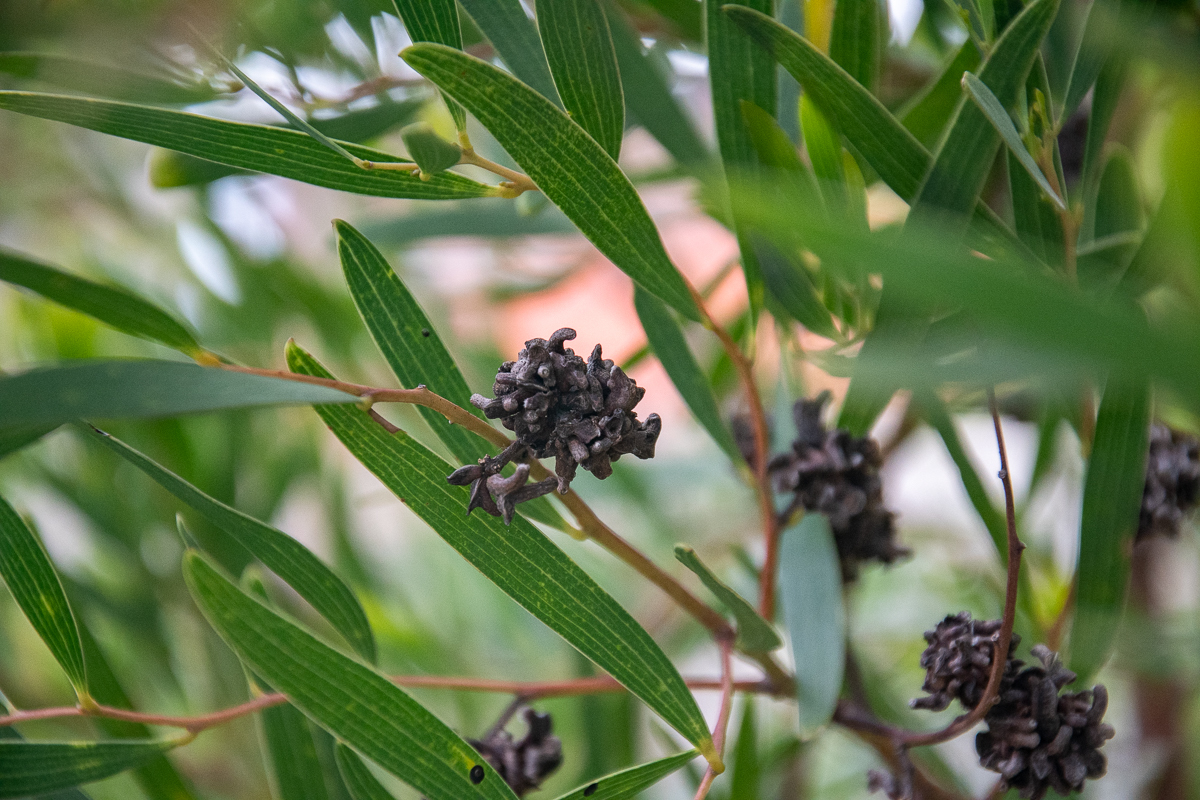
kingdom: Animalia
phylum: Arthropoda
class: Insecta
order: Diptera
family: Cecidomyiidae
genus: Dasineura
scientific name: Dasineura dielsi
